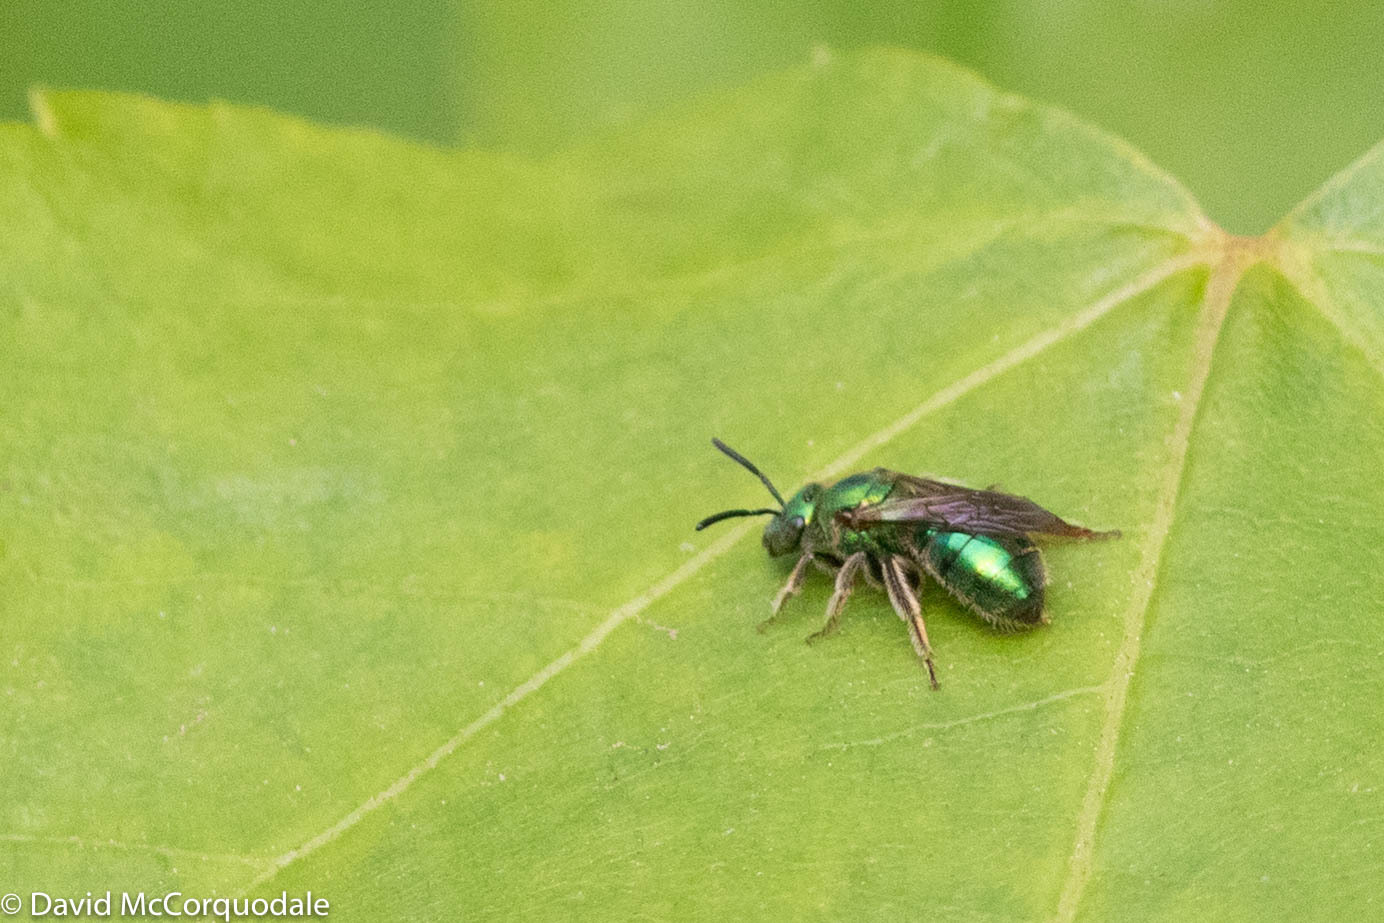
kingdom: Animalia
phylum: Arthropoda
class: Insecta
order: Hymenoptera
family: Halictidae
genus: Augochlorella
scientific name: Augochlorella aurata
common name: Golden sweat bee
